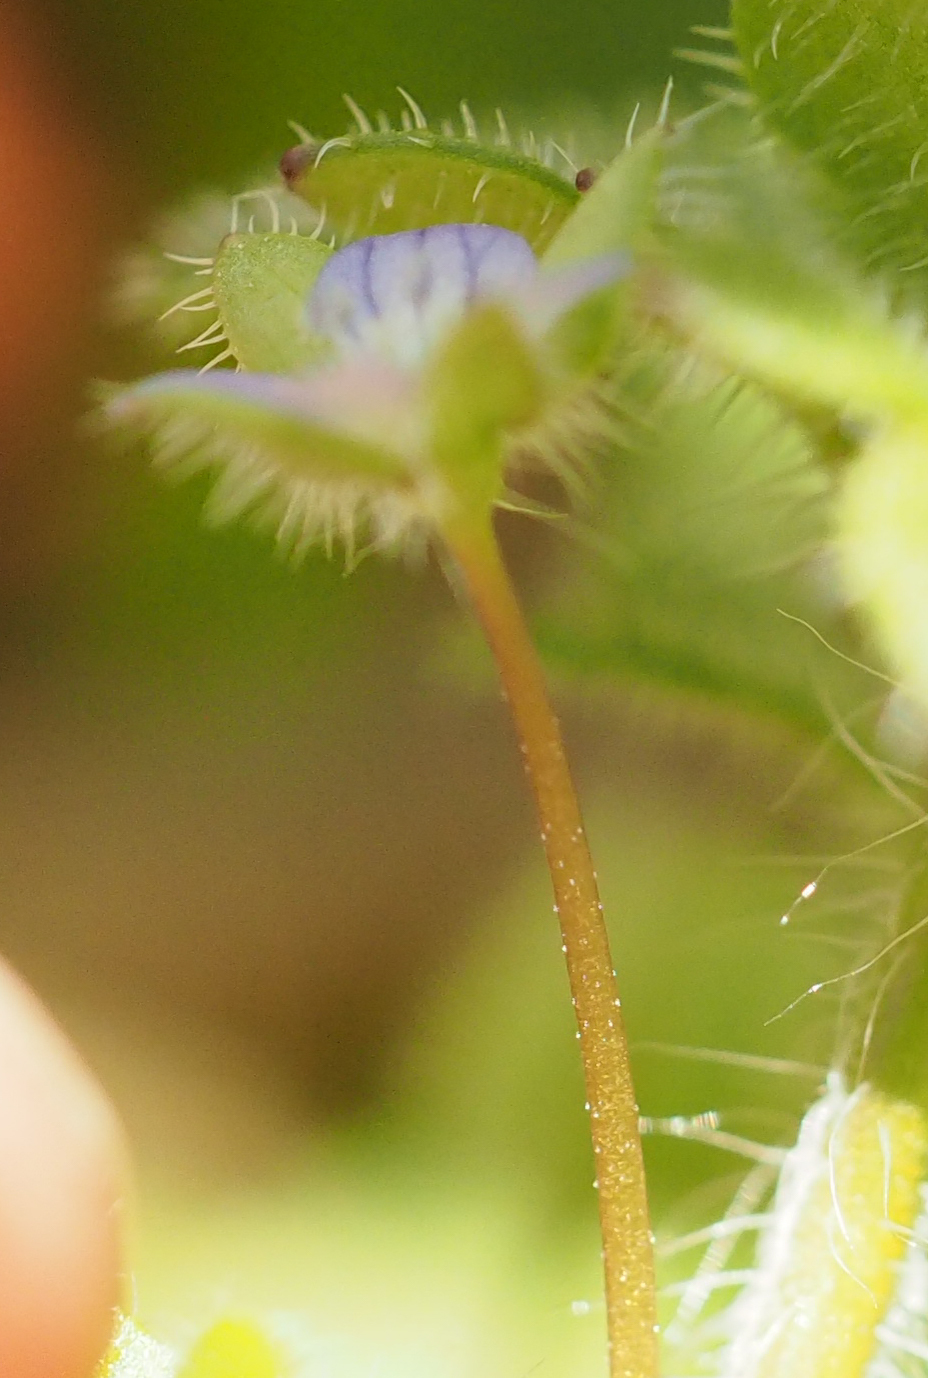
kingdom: Plantae
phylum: Tracheophyta
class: Magnoliopsida
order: Lamiales
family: Plantaginaceae
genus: Veronica
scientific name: Veronica hederifolia
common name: Ivy-leaved speedwell
